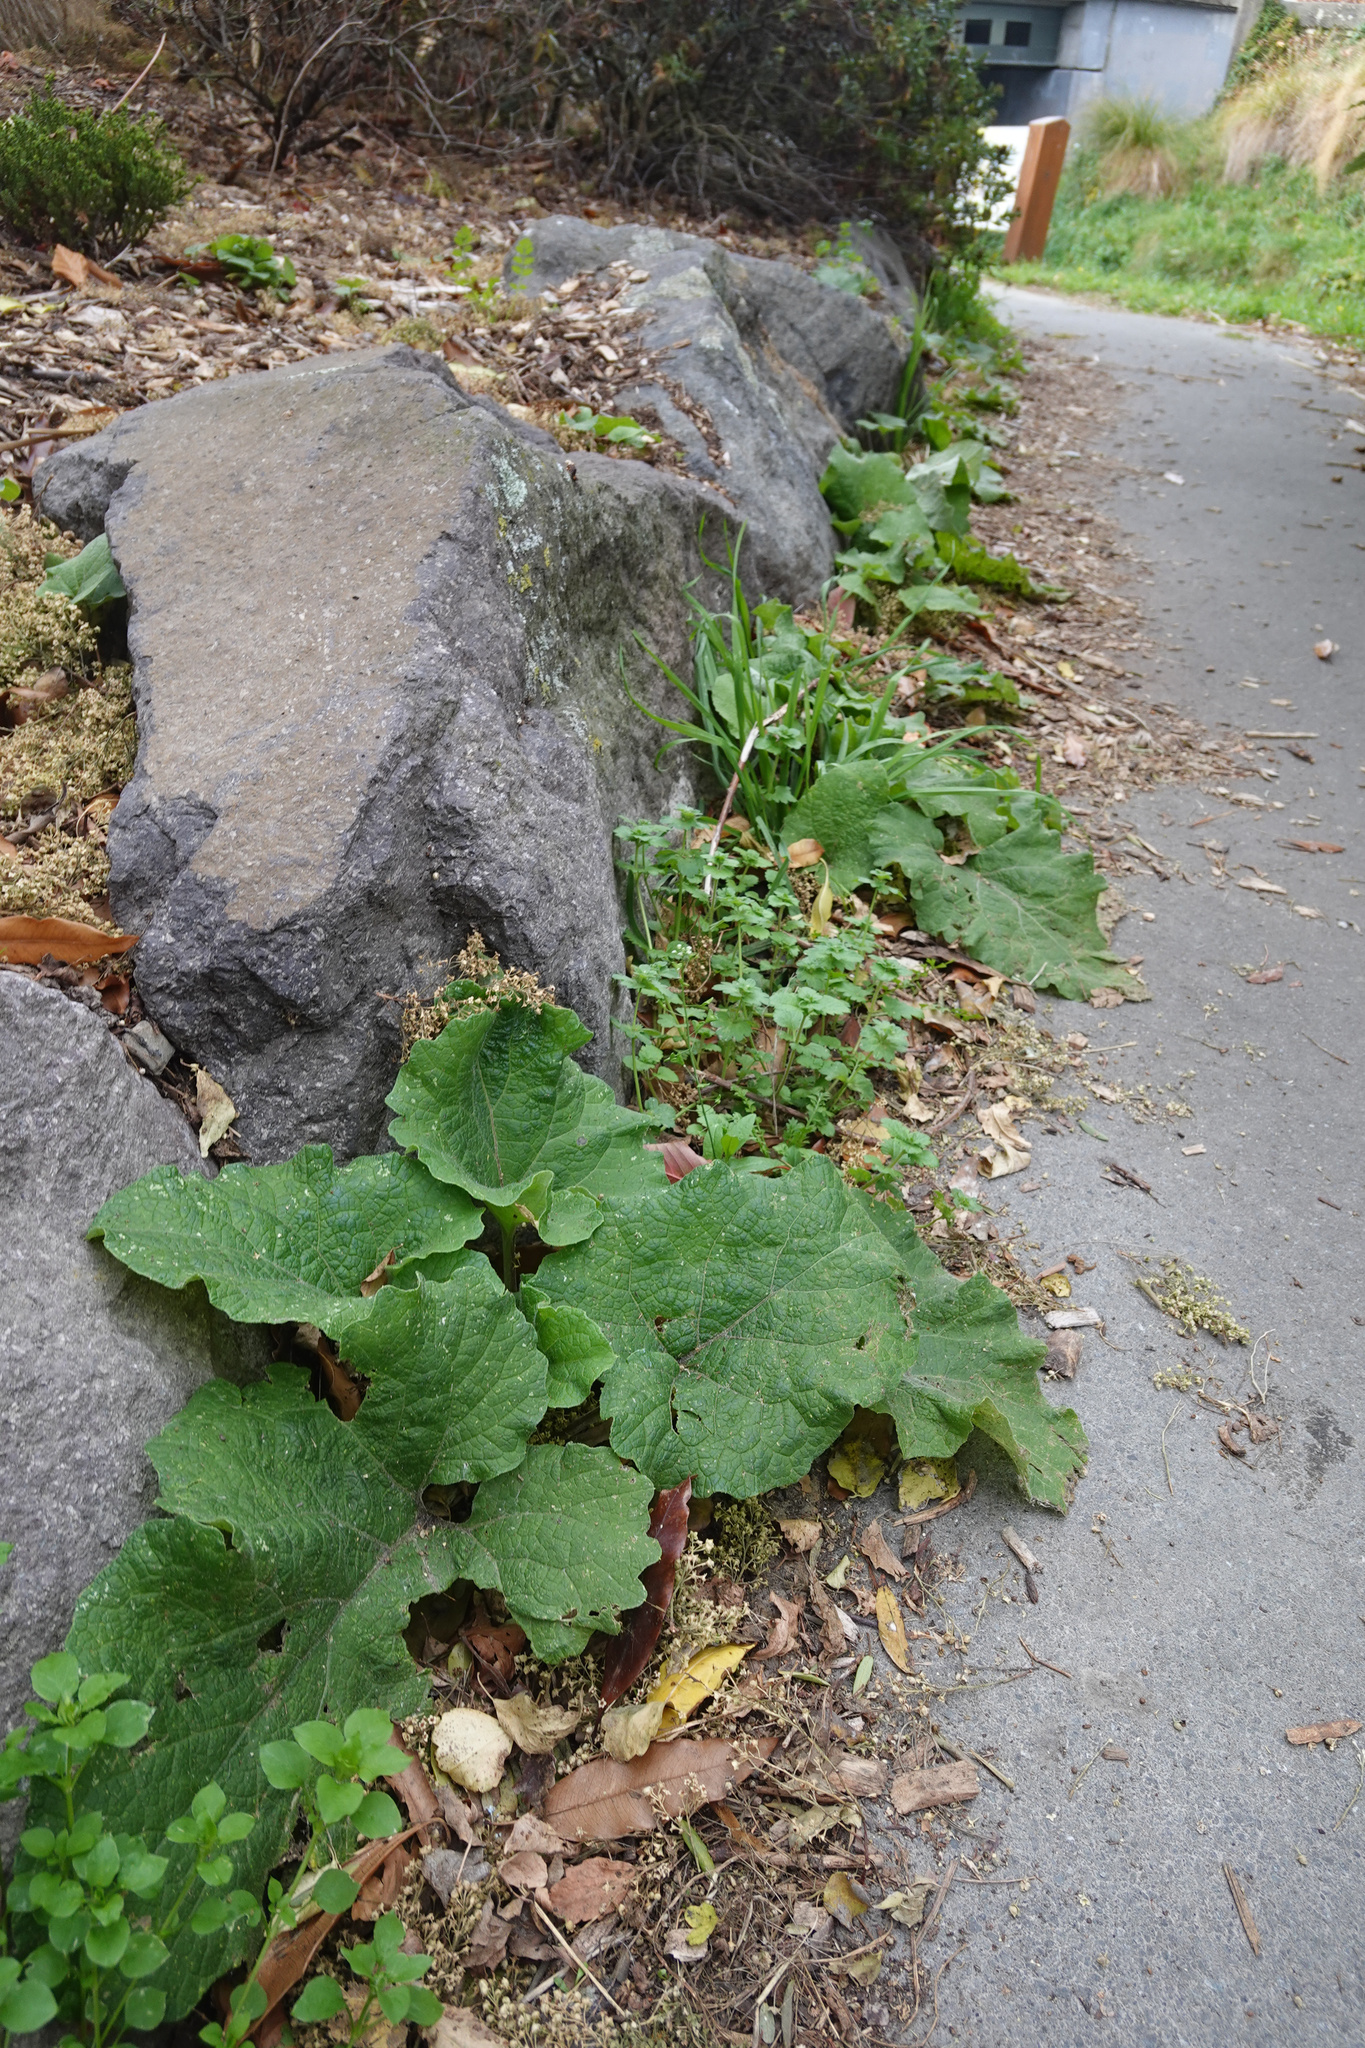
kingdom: Plantae
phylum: Tracheophyta
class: Magnoliopsida
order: Asterales
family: Asteraceae
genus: Arctium
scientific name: Arctium minus
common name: Lesser burdock
